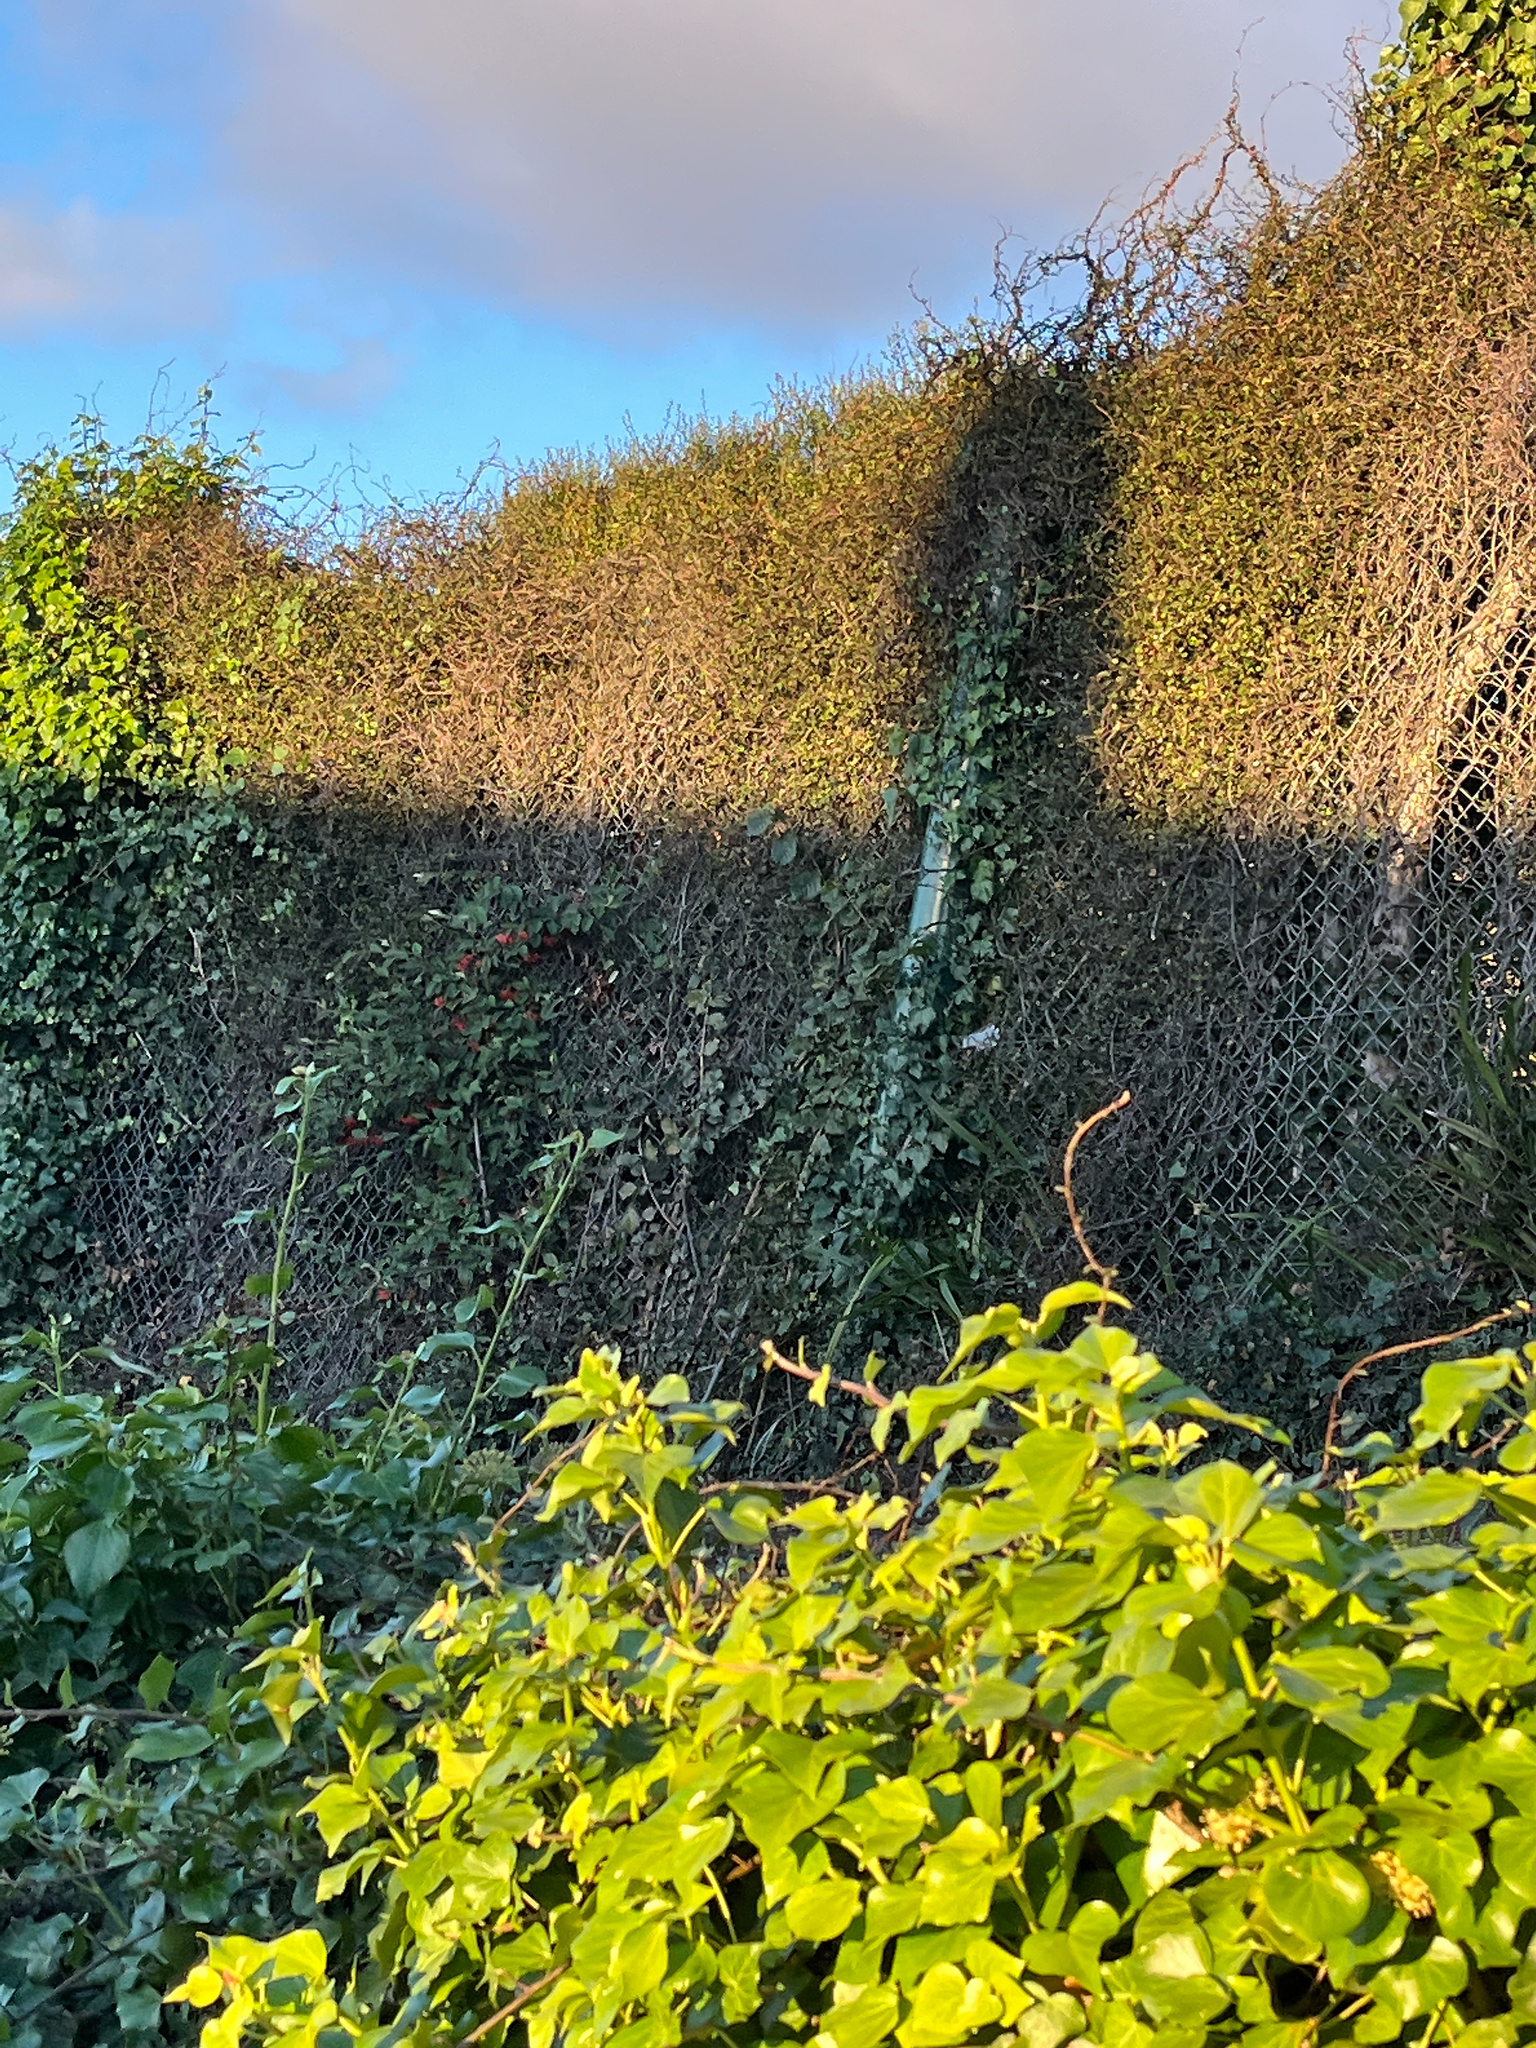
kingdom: Plantae
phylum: Tracheophyta
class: Magnoliopsida
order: Caryophyllales
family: Polygonaceae
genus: Muehlenbeckia
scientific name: Muehlenbeckia complexa
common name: Wireplant
